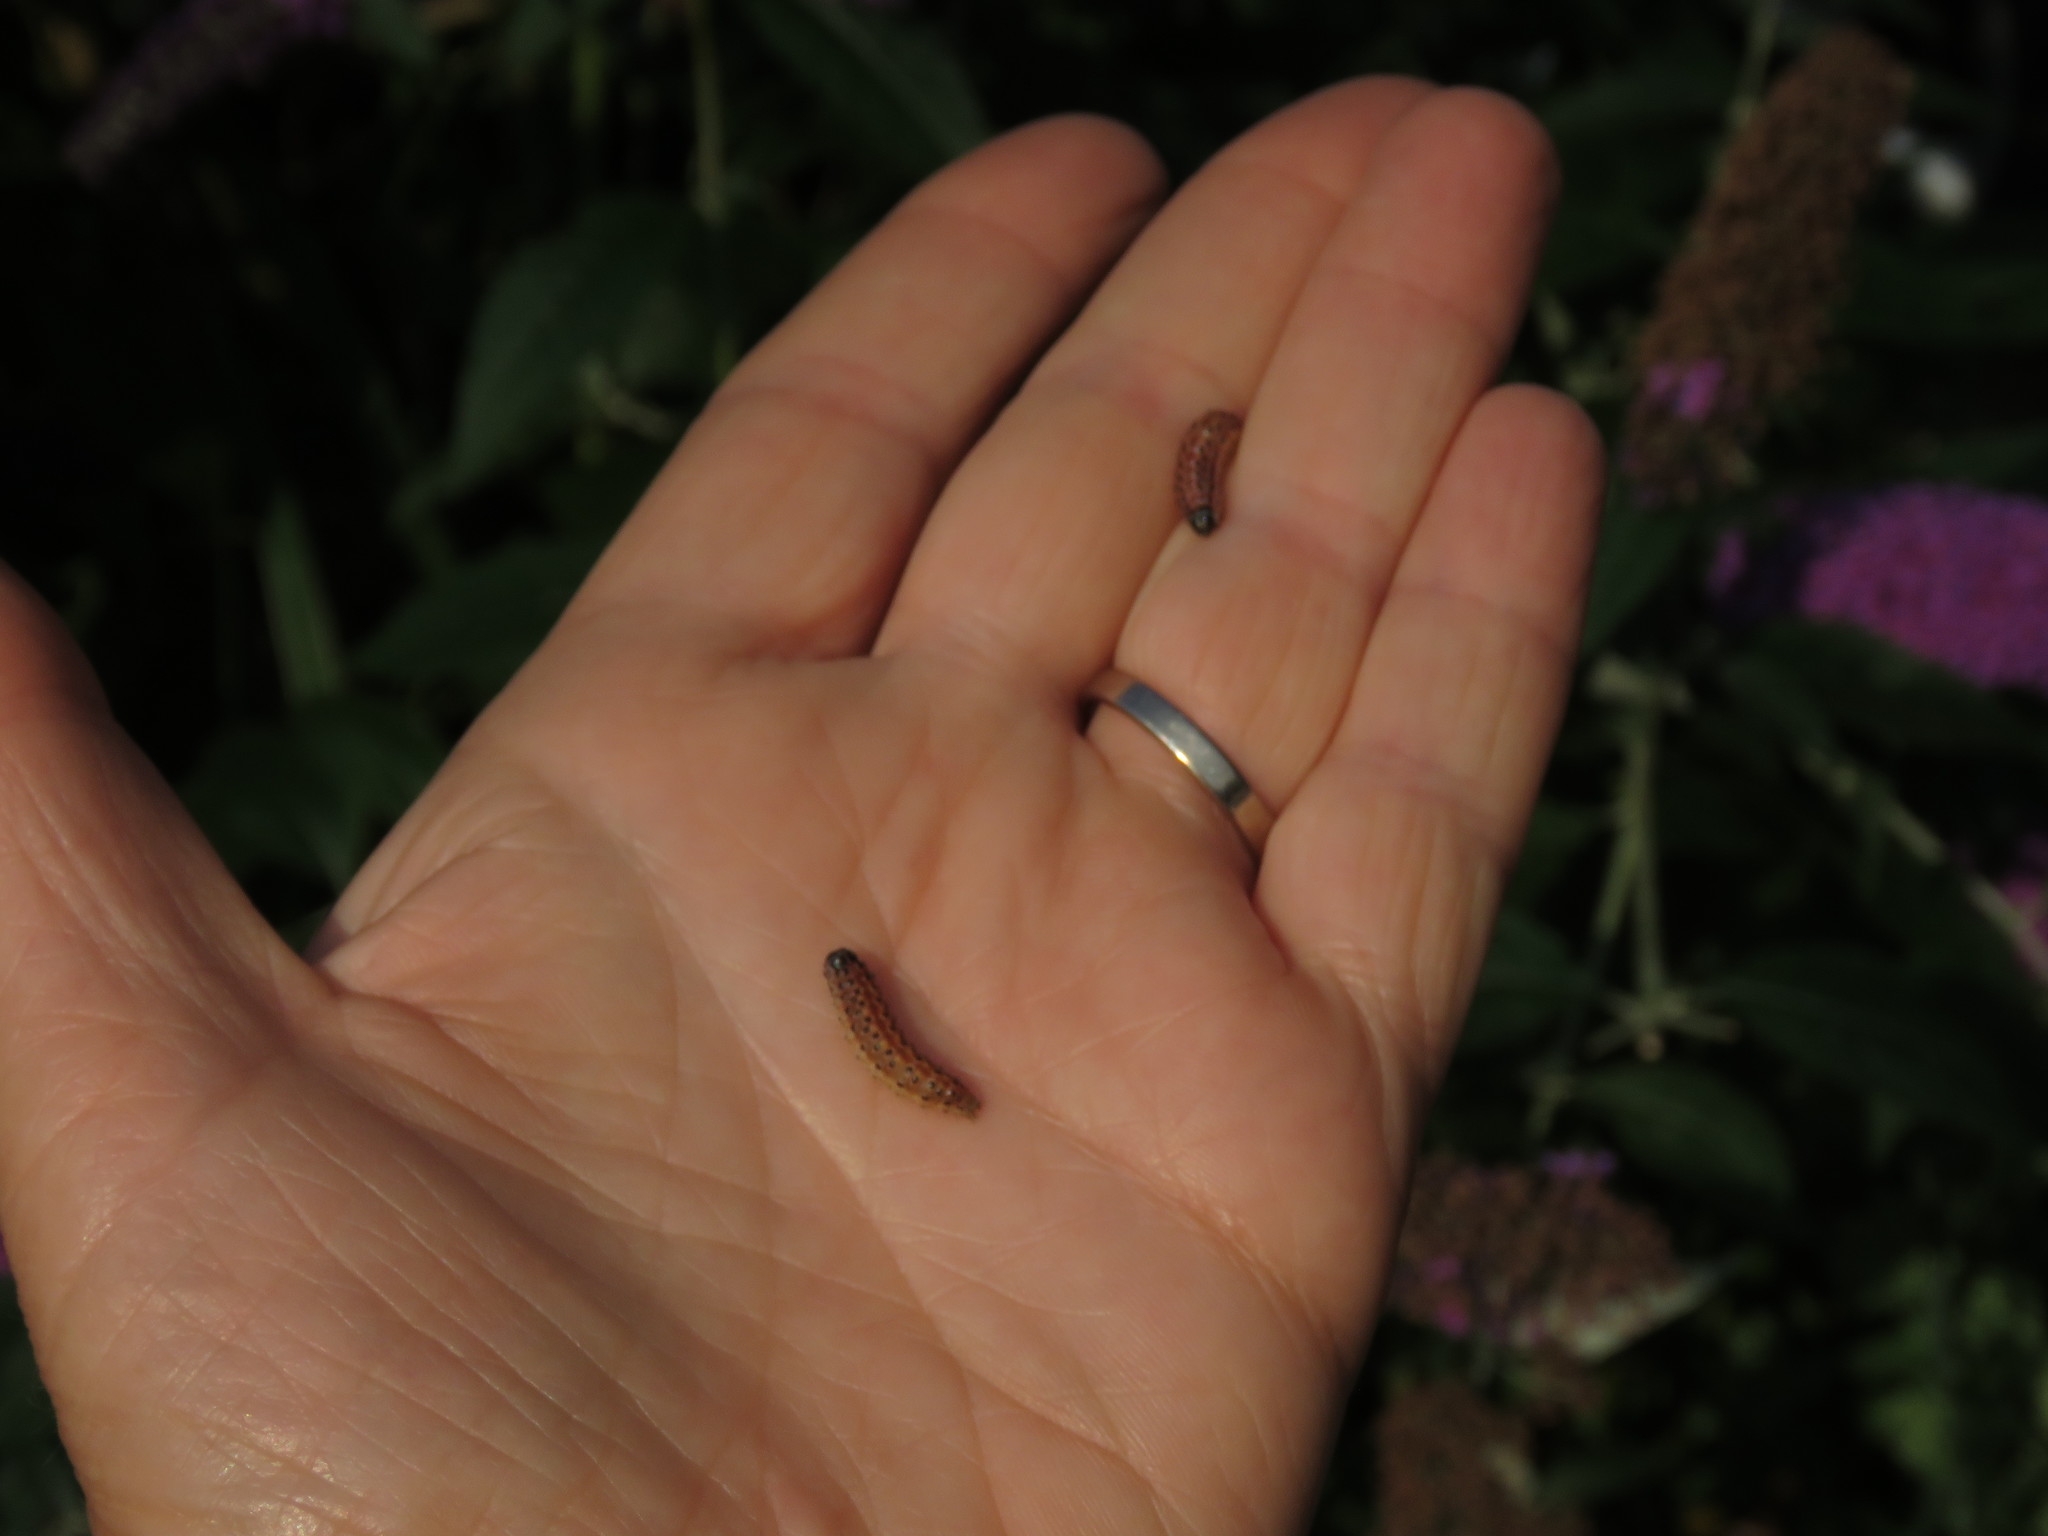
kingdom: Animalia
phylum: Arthropoda
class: Insecta
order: Lepidoptera
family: Crambidae
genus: Sitochroa
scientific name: Sitochroa palealis
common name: Greenish-yellow sitochroa moth
